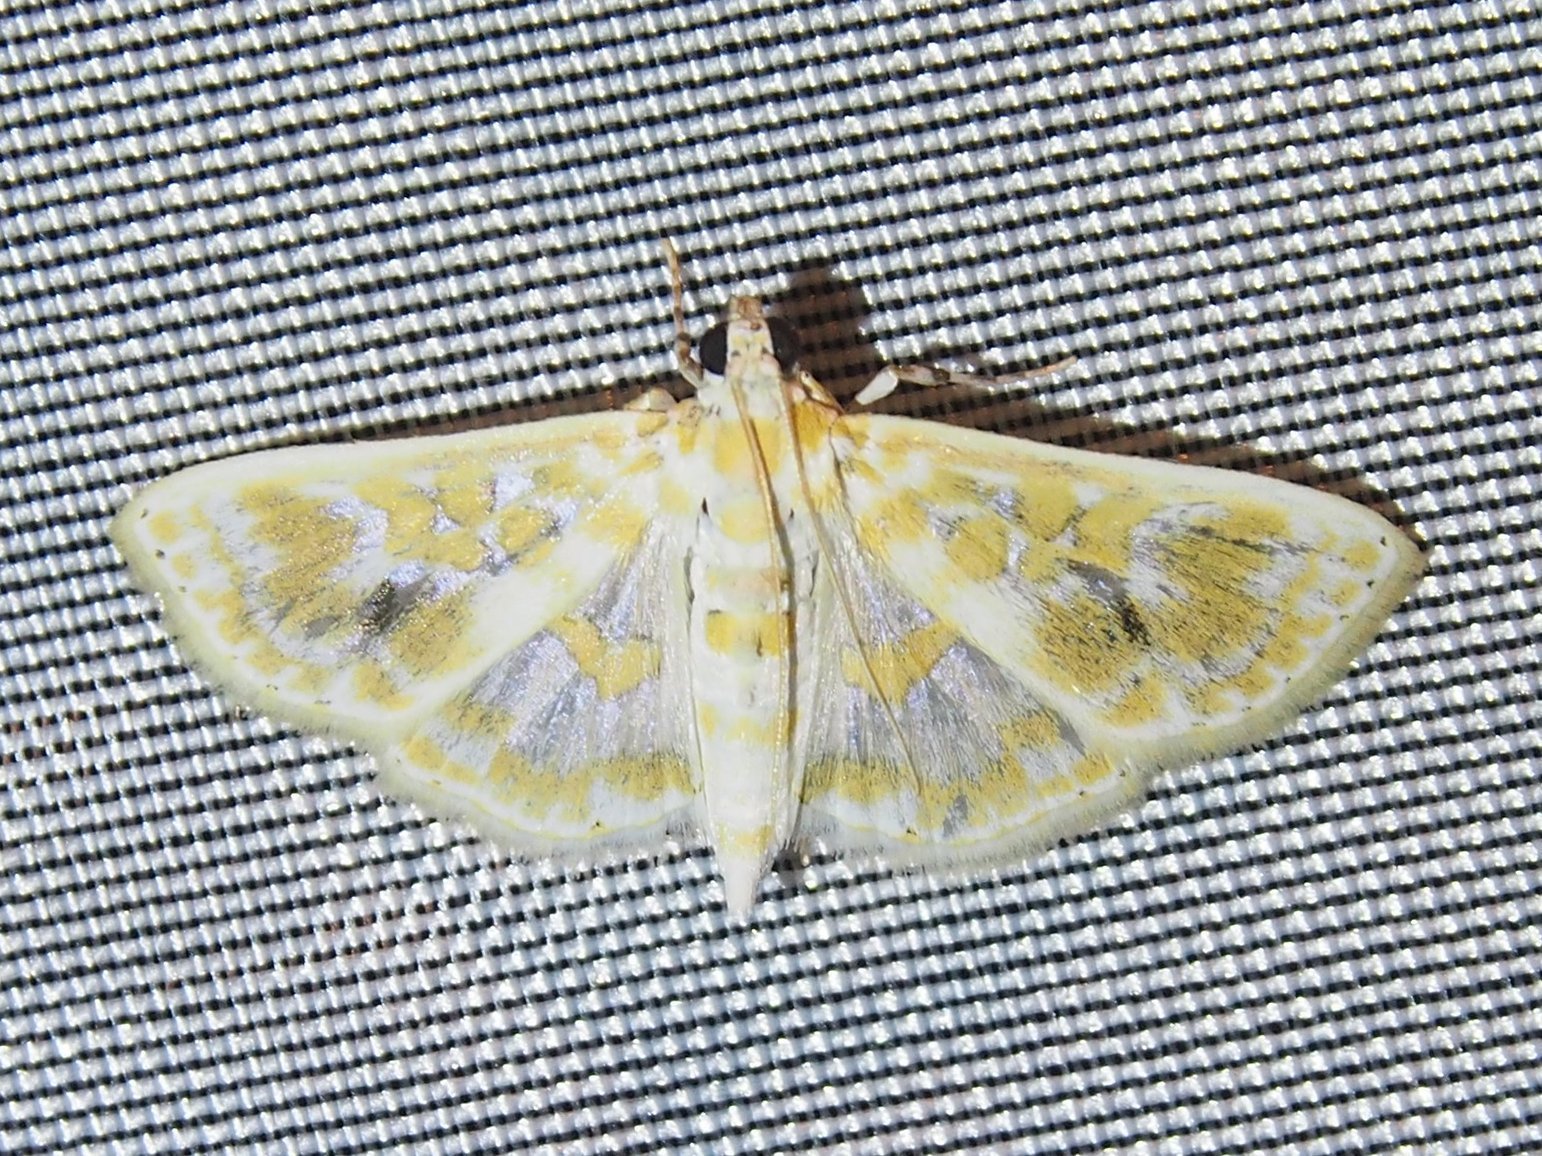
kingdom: Animalia
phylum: Arthropoda
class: Insecta
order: Lepidoptera
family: Crambidae
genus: Leucochroma
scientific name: Leucochroma corope
